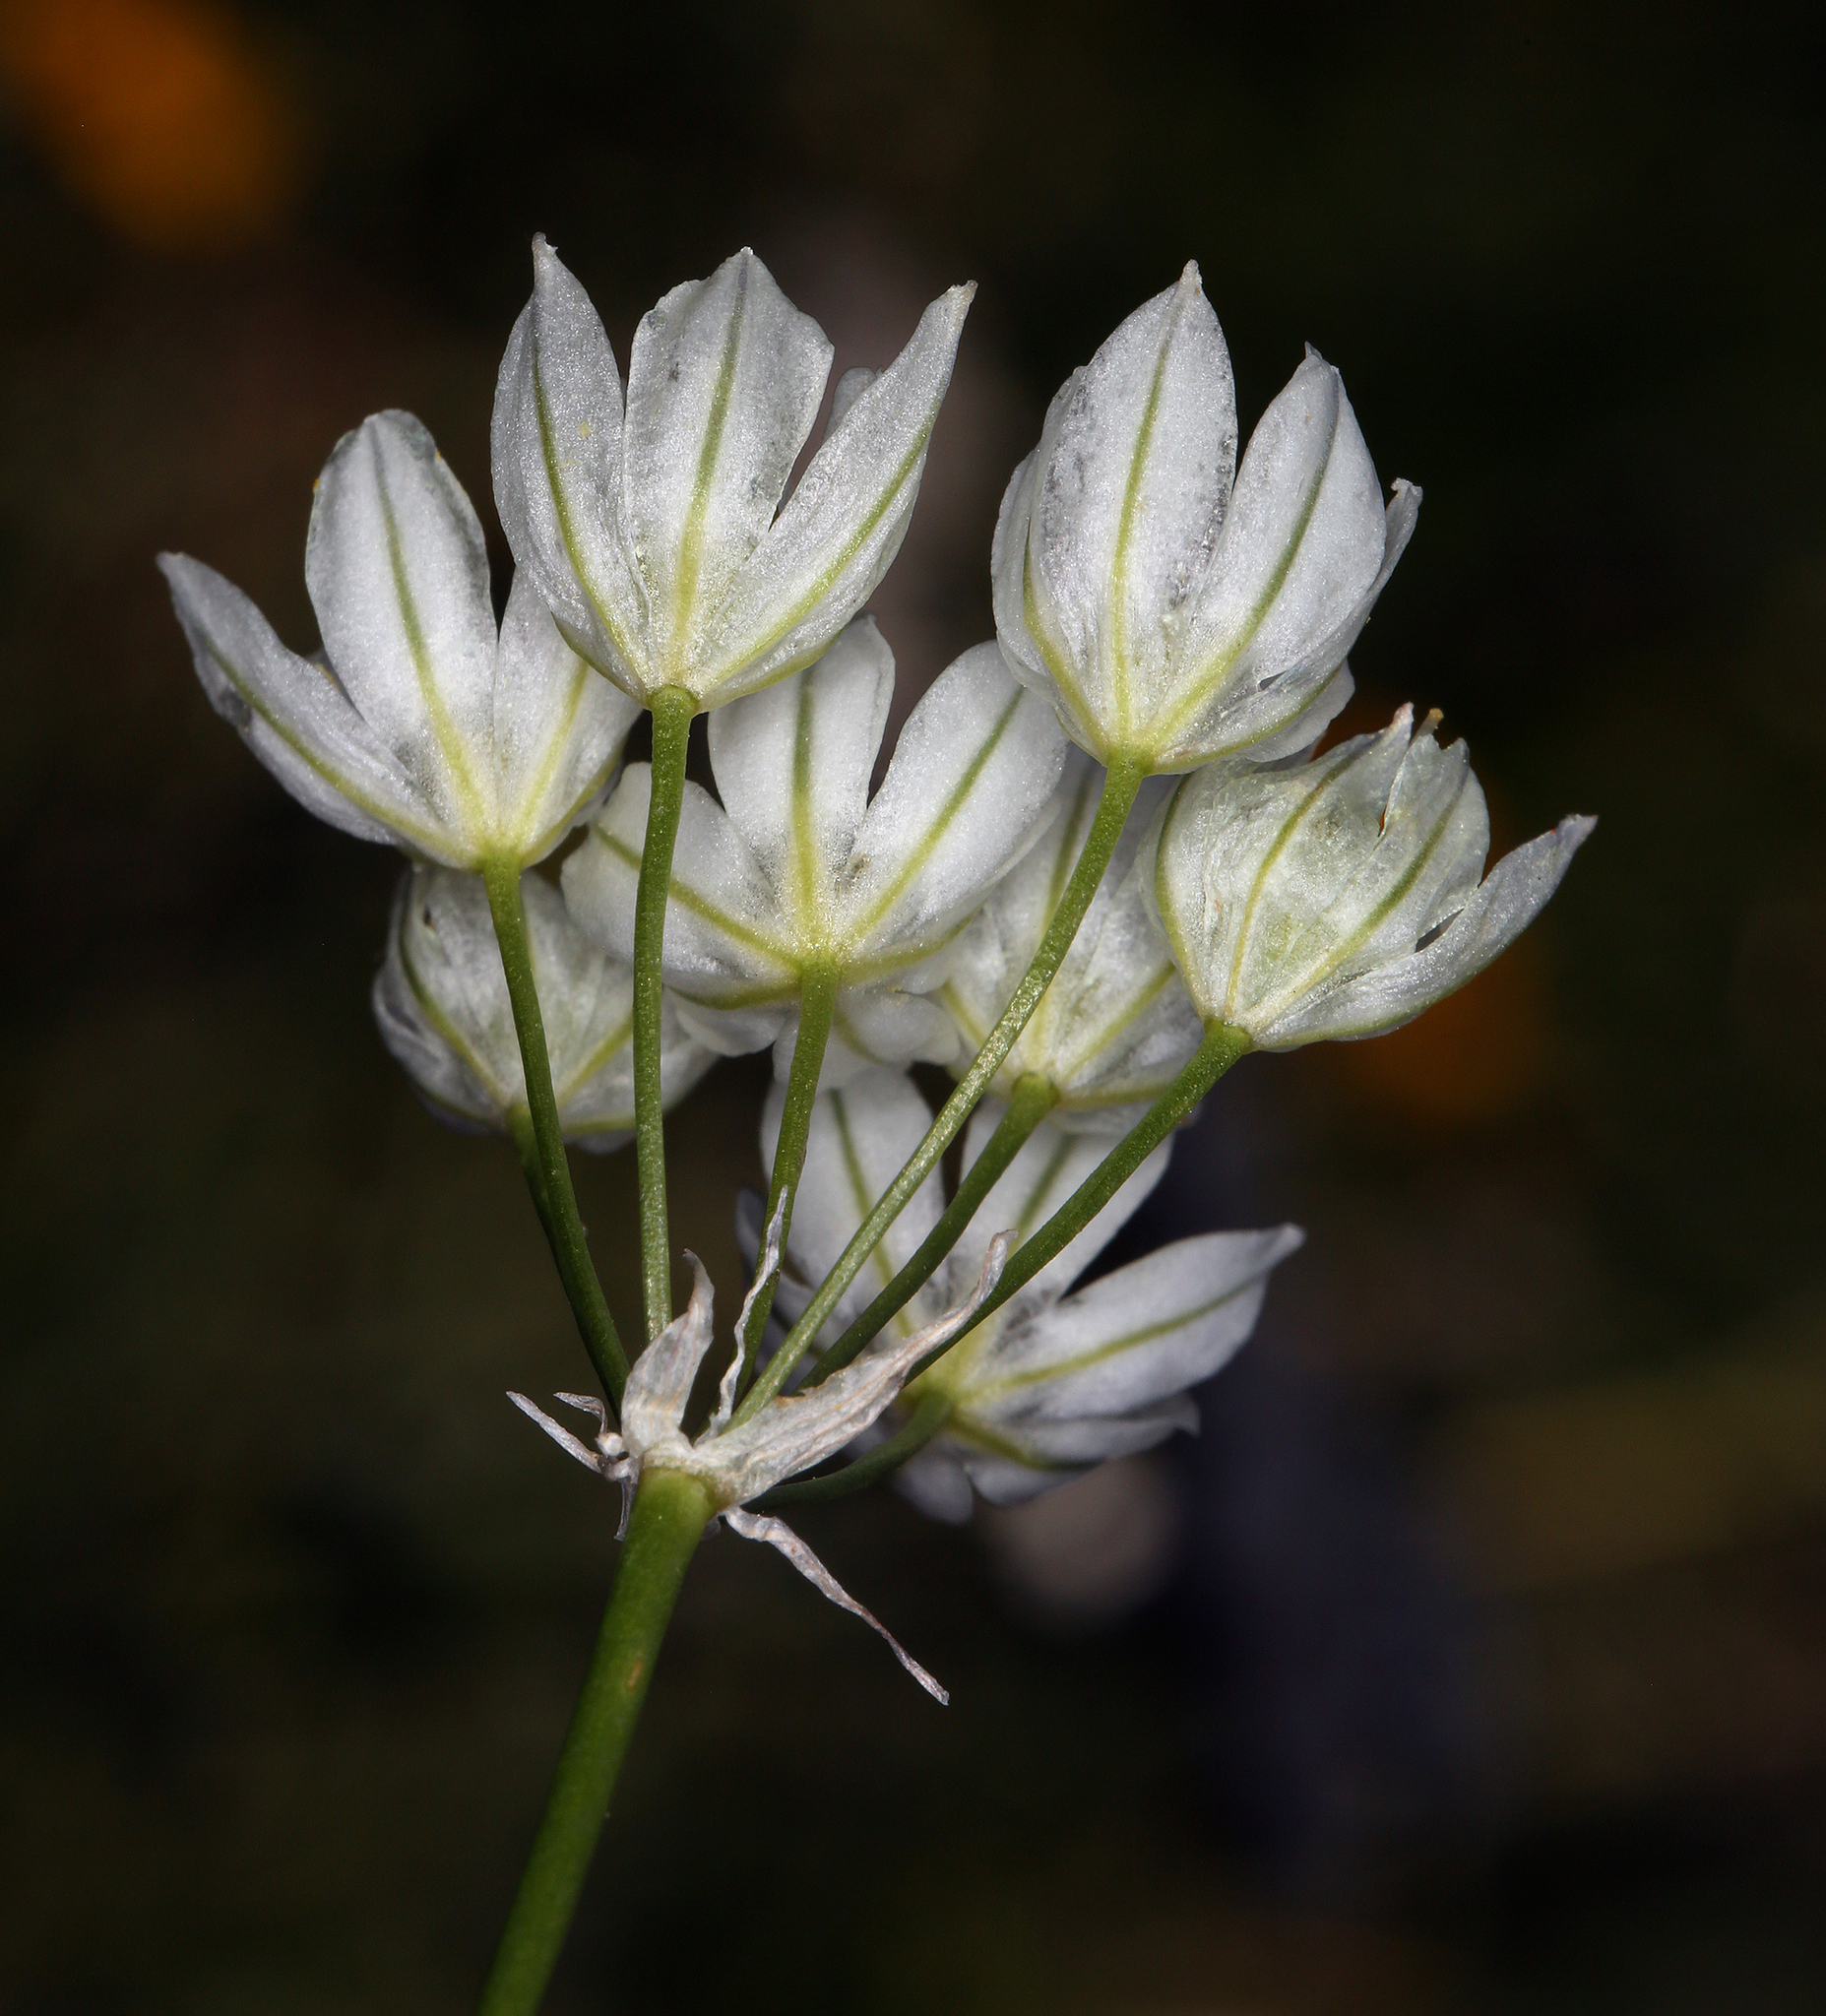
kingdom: Plantae
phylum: Tracheophyta
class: Liliopsida
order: Asparagales
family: Asparagaceae
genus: Triteleia
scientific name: Triteleia hyacinthina
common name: White brodiaea
